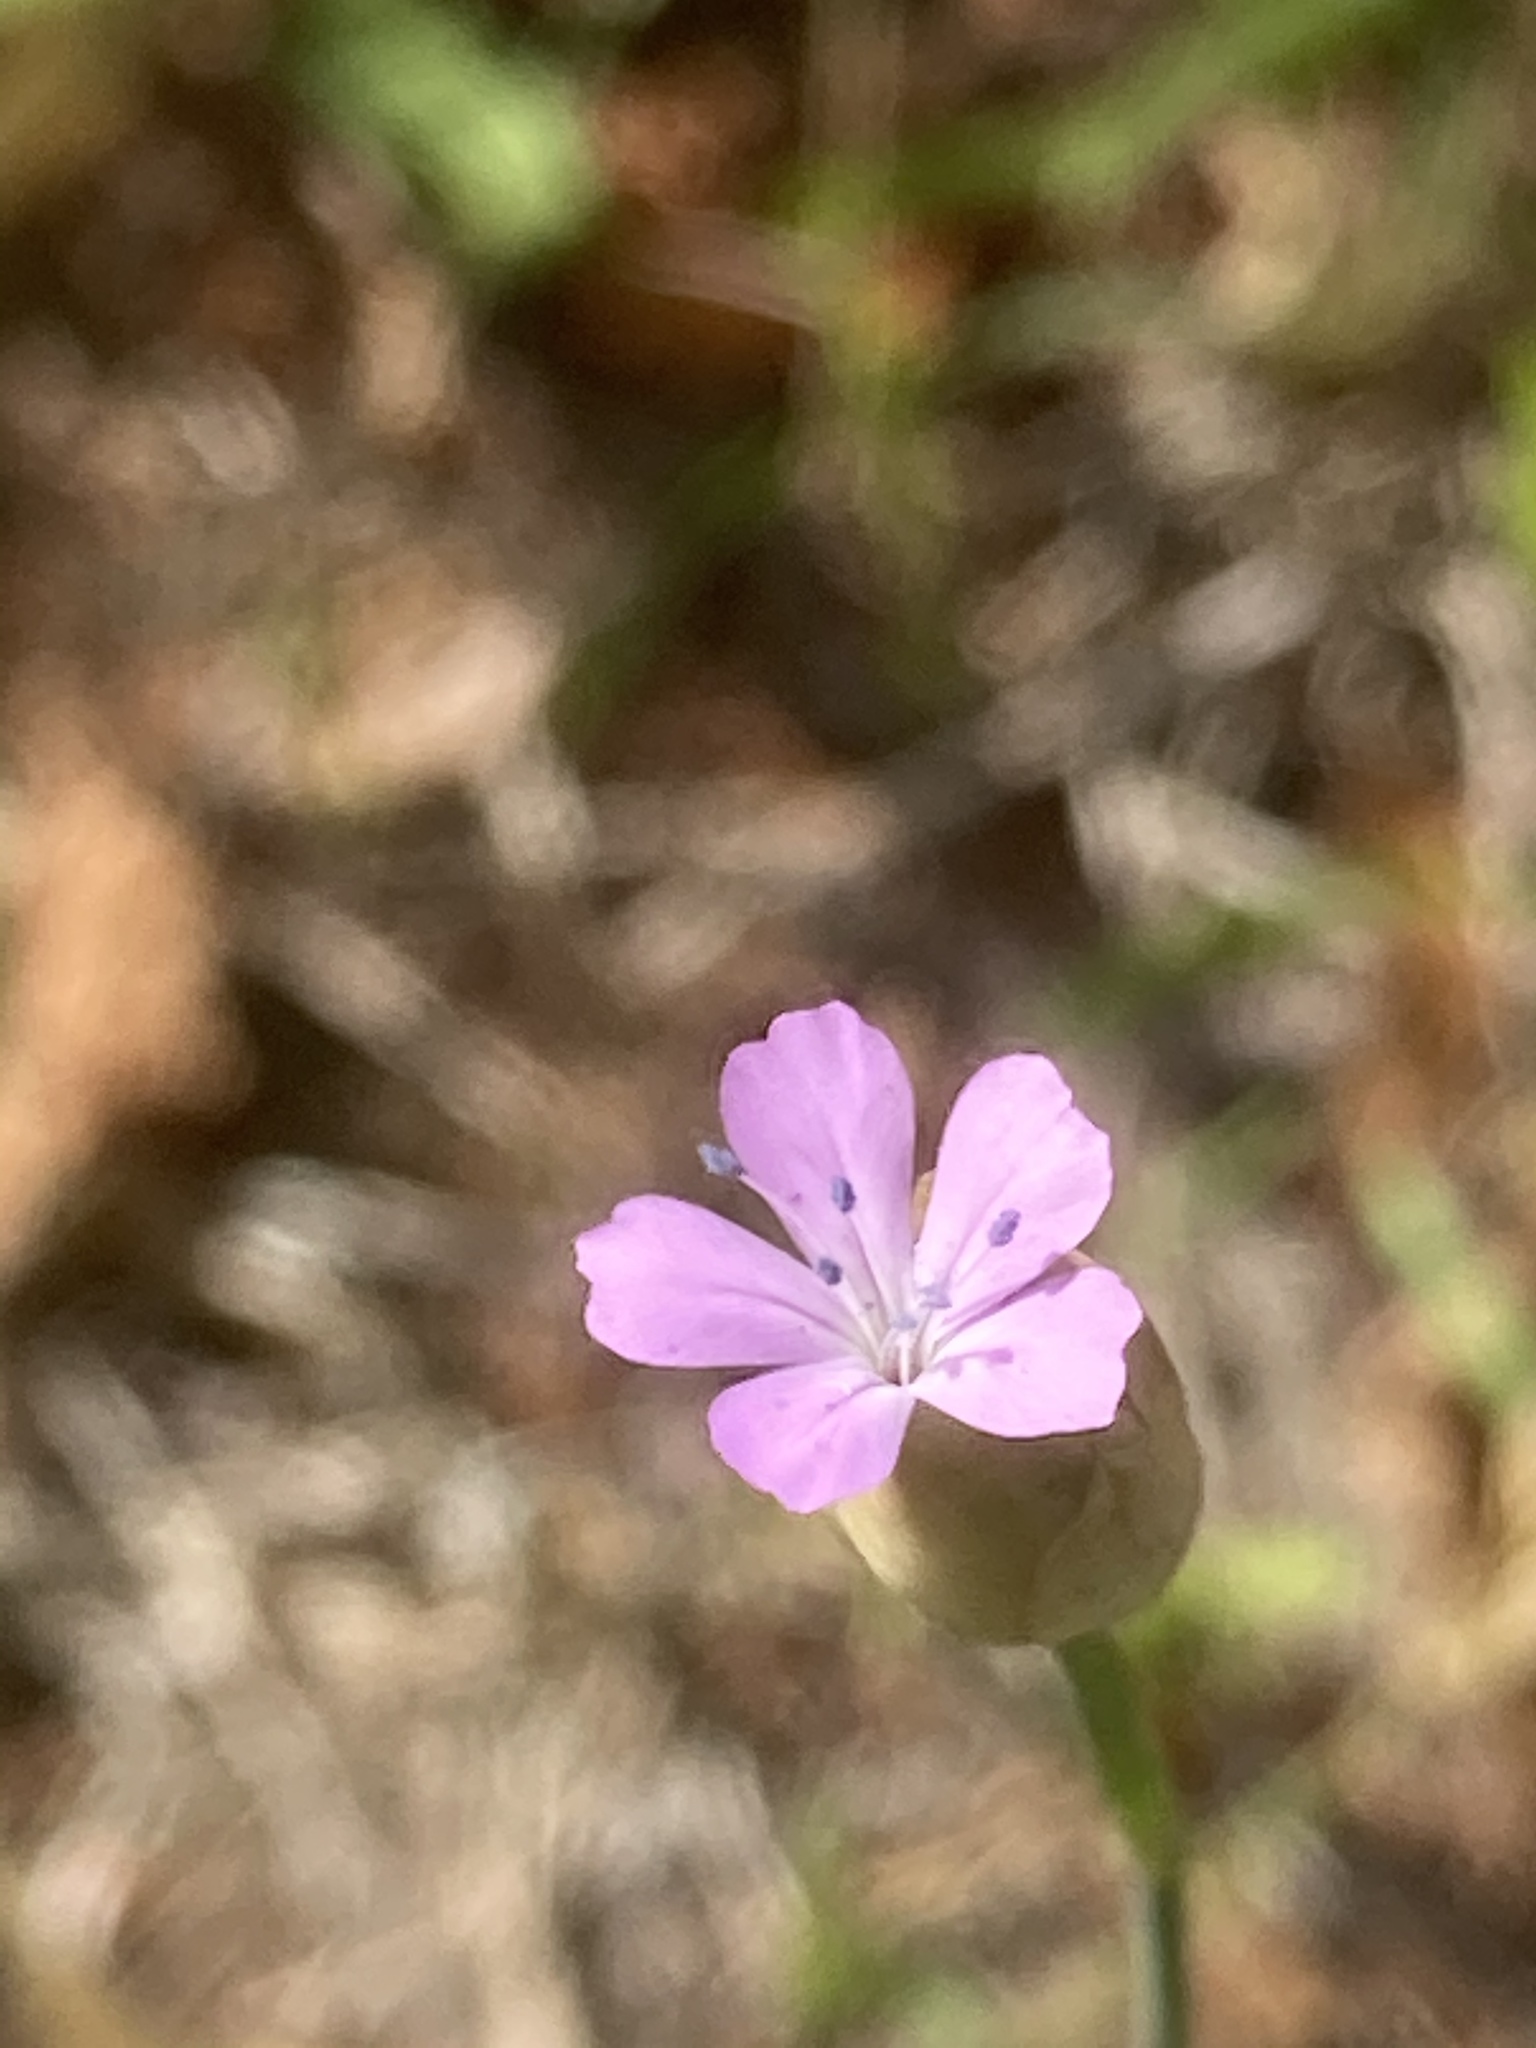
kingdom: Plantae
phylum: Tracheophyta
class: Magnoliopsida
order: Caryophyllales
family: Caryophyllaceae
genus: Petrorhagia
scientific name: Petrorhagia prolifera
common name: Proliferous pink
